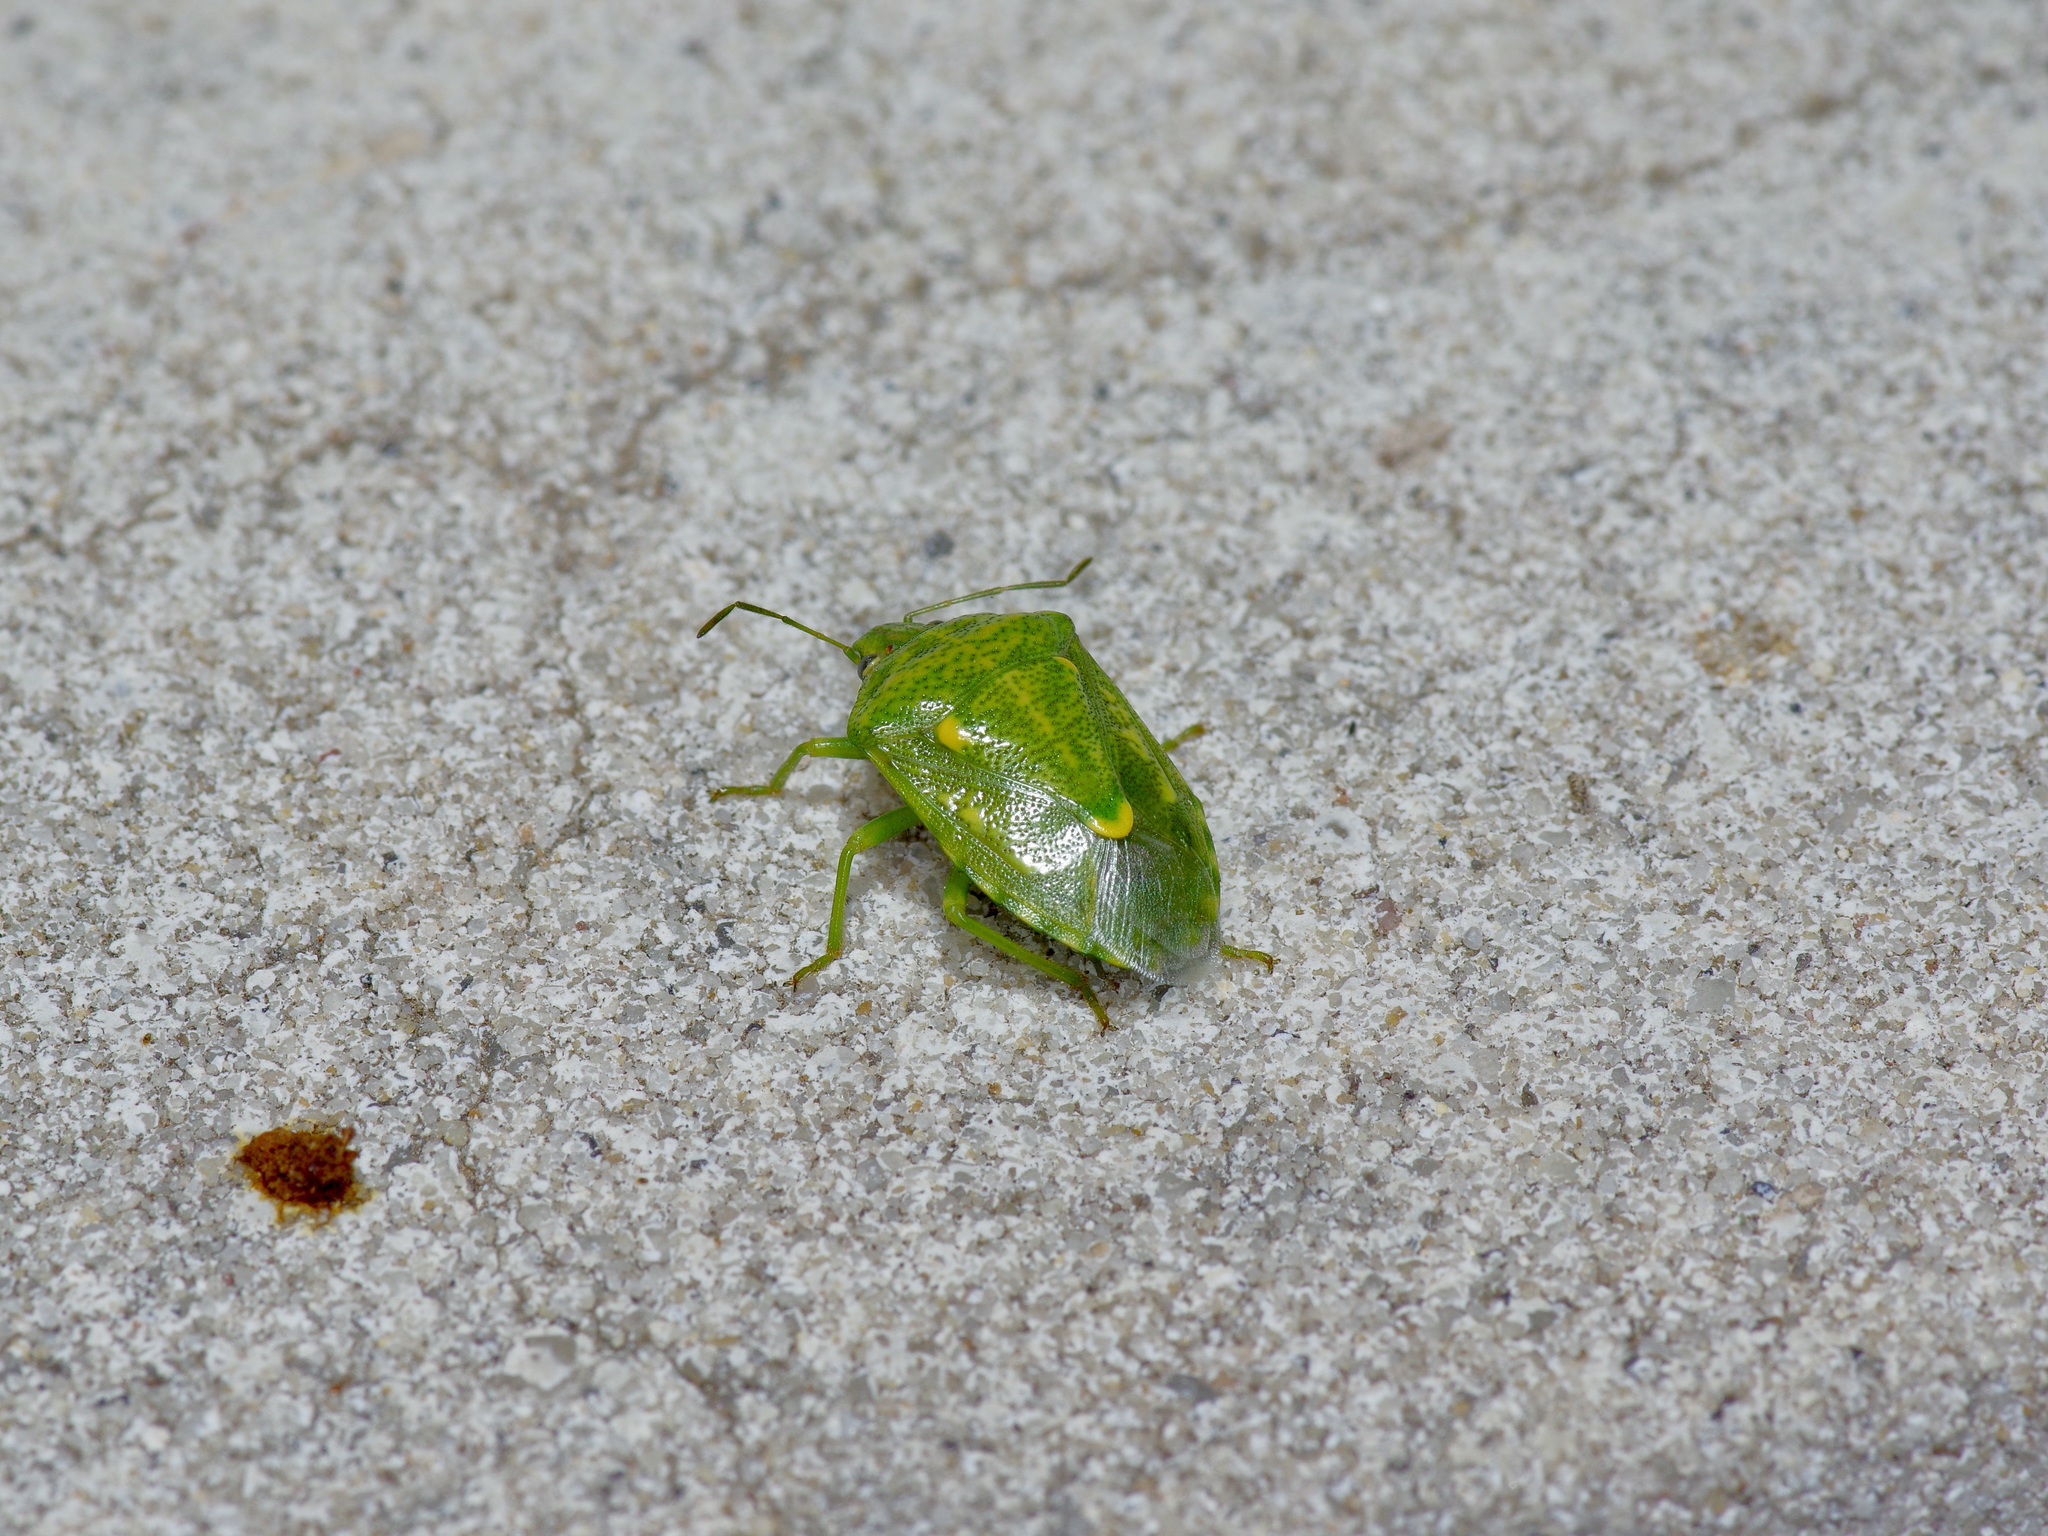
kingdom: Animalia
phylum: Arthropoda
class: Insecta
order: Hemiptera
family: Pentatomidae
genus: Banasa
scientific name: Banasa euchlora
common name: Cedar berry bug
